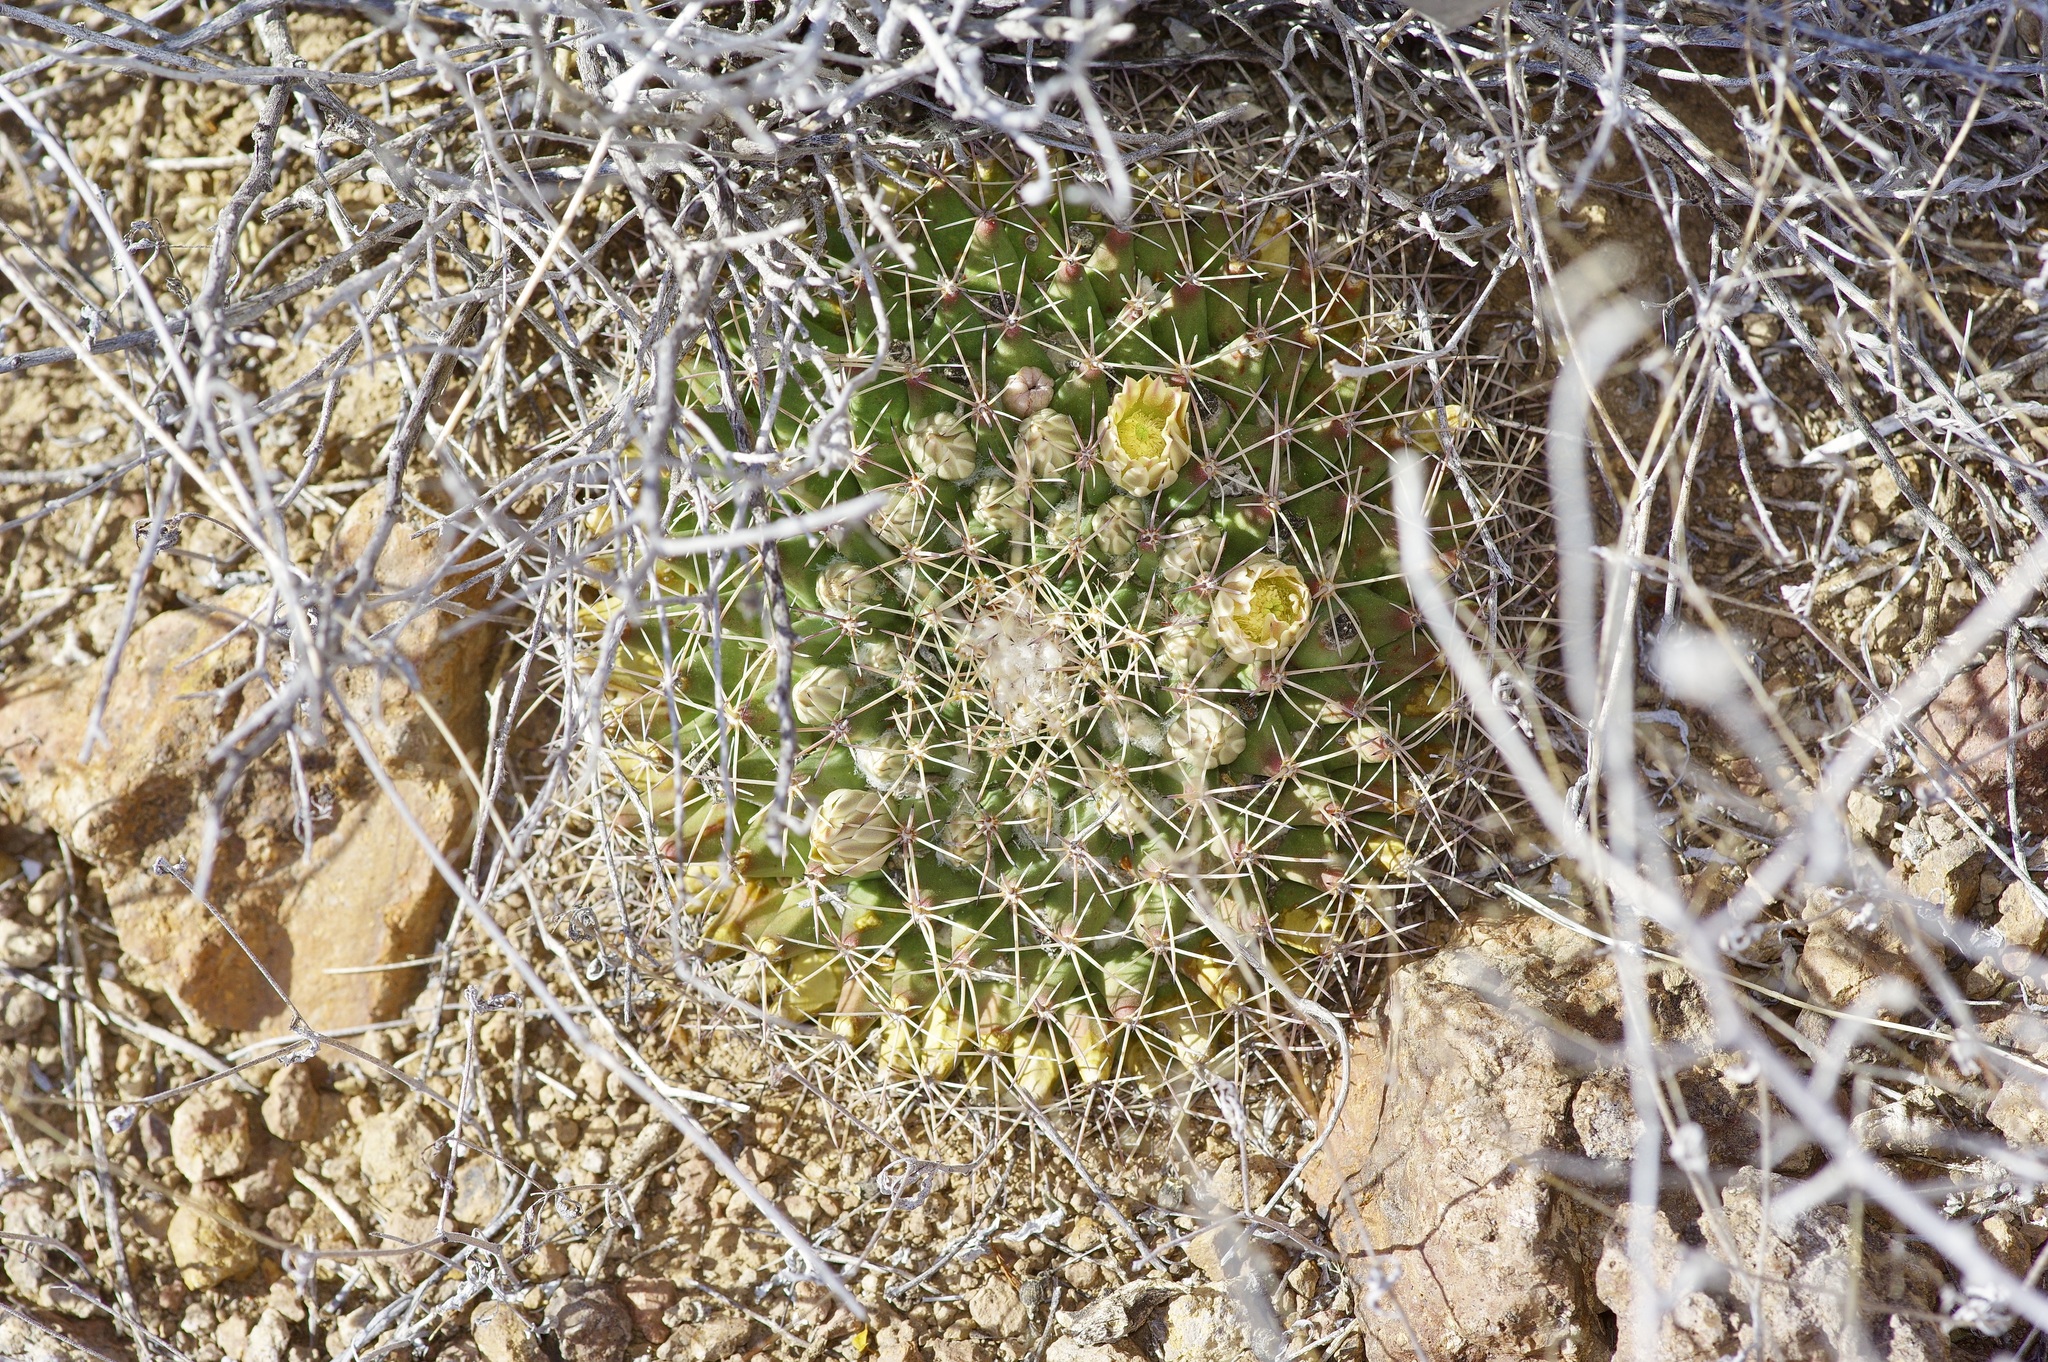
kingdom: Plantae
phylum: Tracheophyta
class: Magnoliopsida
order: Caryophyllales
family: Cactaceae
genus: Mammillaria
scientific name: Mammillaria heyderi
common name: Little nipple cactus
